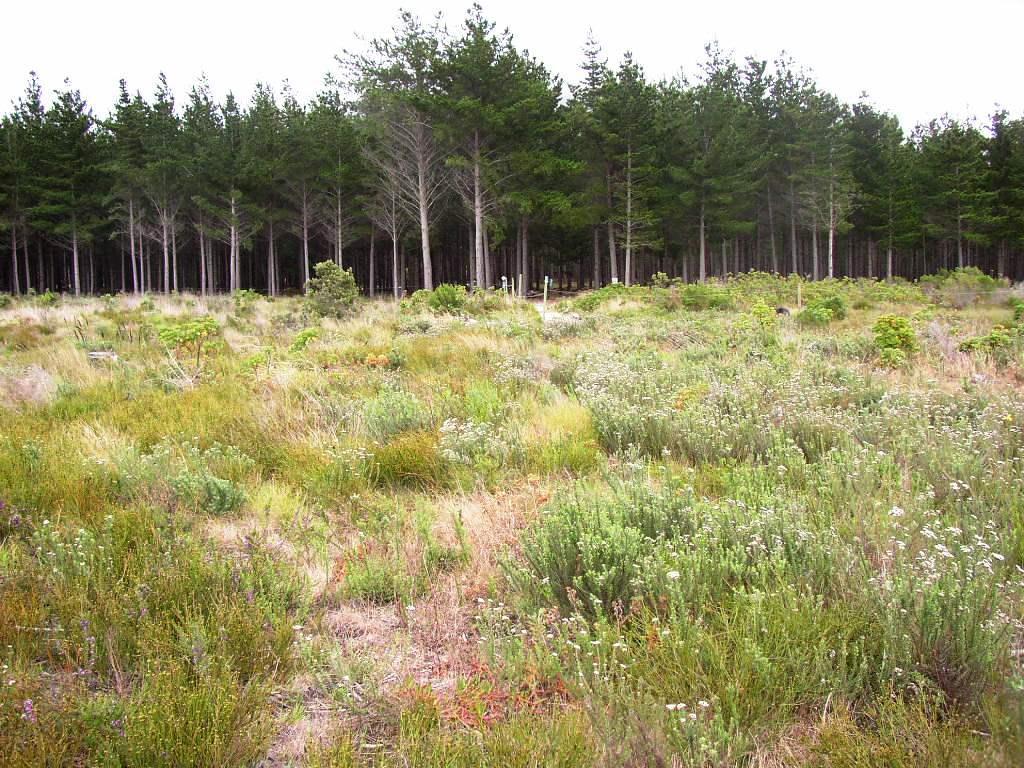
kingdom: Plantae
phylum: Tracheophyta
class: Magnoliopsida
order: Santalales
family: Thesiaceae
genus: Thesium
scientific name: Thesium capitatum
